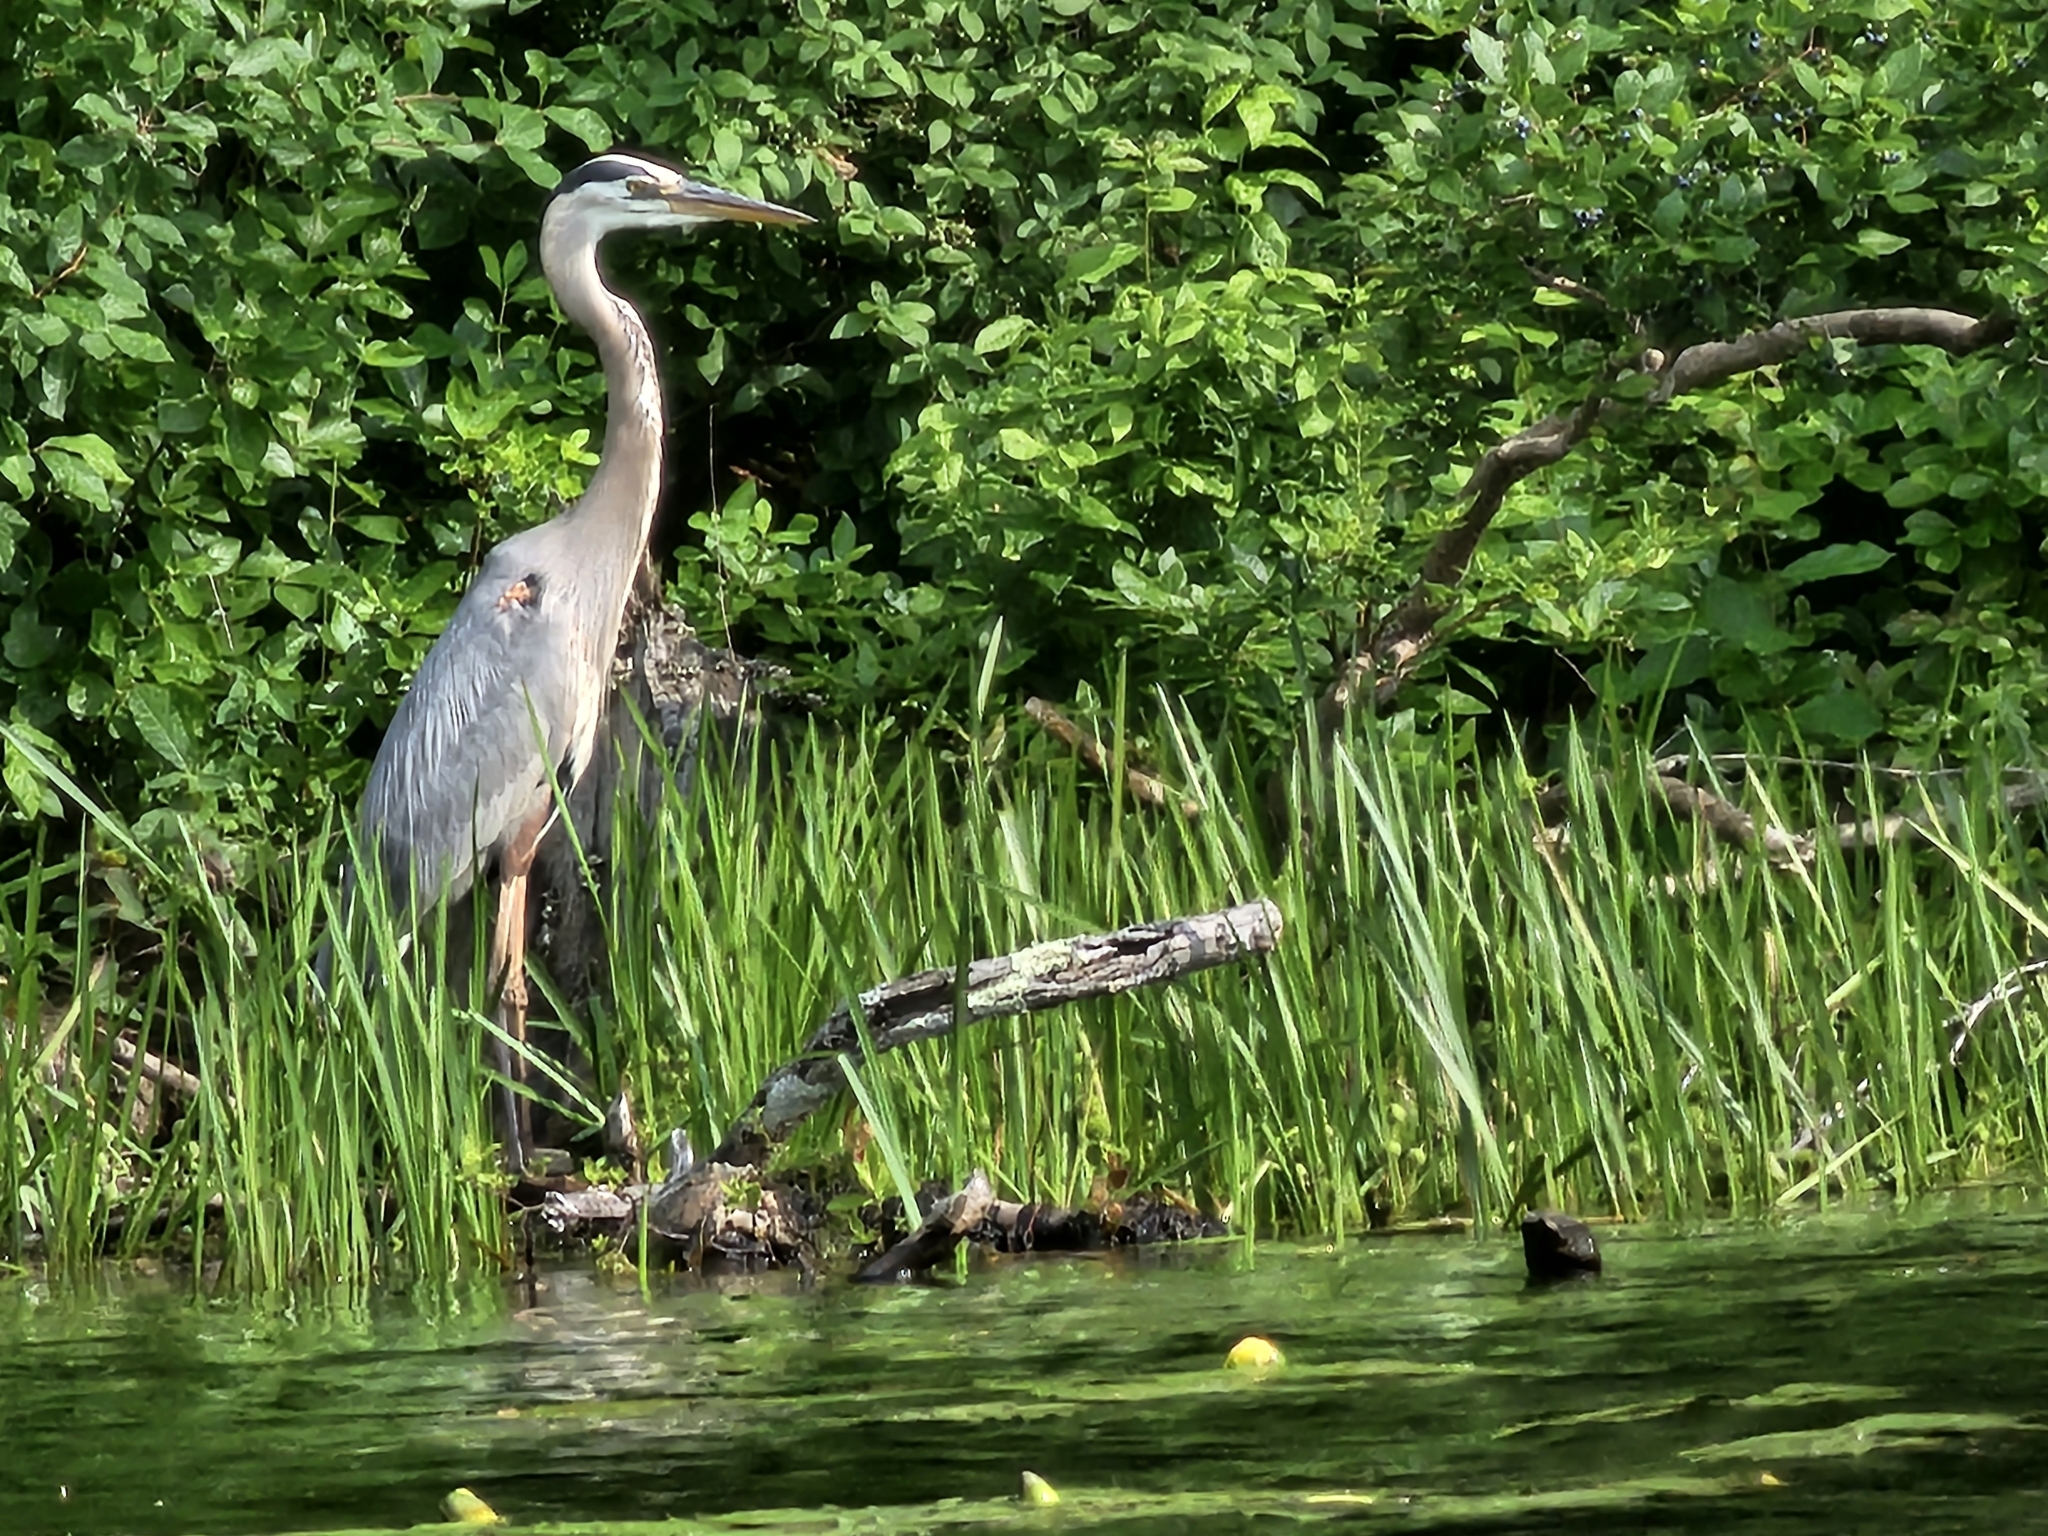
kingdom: Animalia
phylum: Chordata
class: Aves
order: Pelecaniformes
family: Ardeidae
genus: Ardea
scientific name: Ardea herodias
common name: Great blue heron
